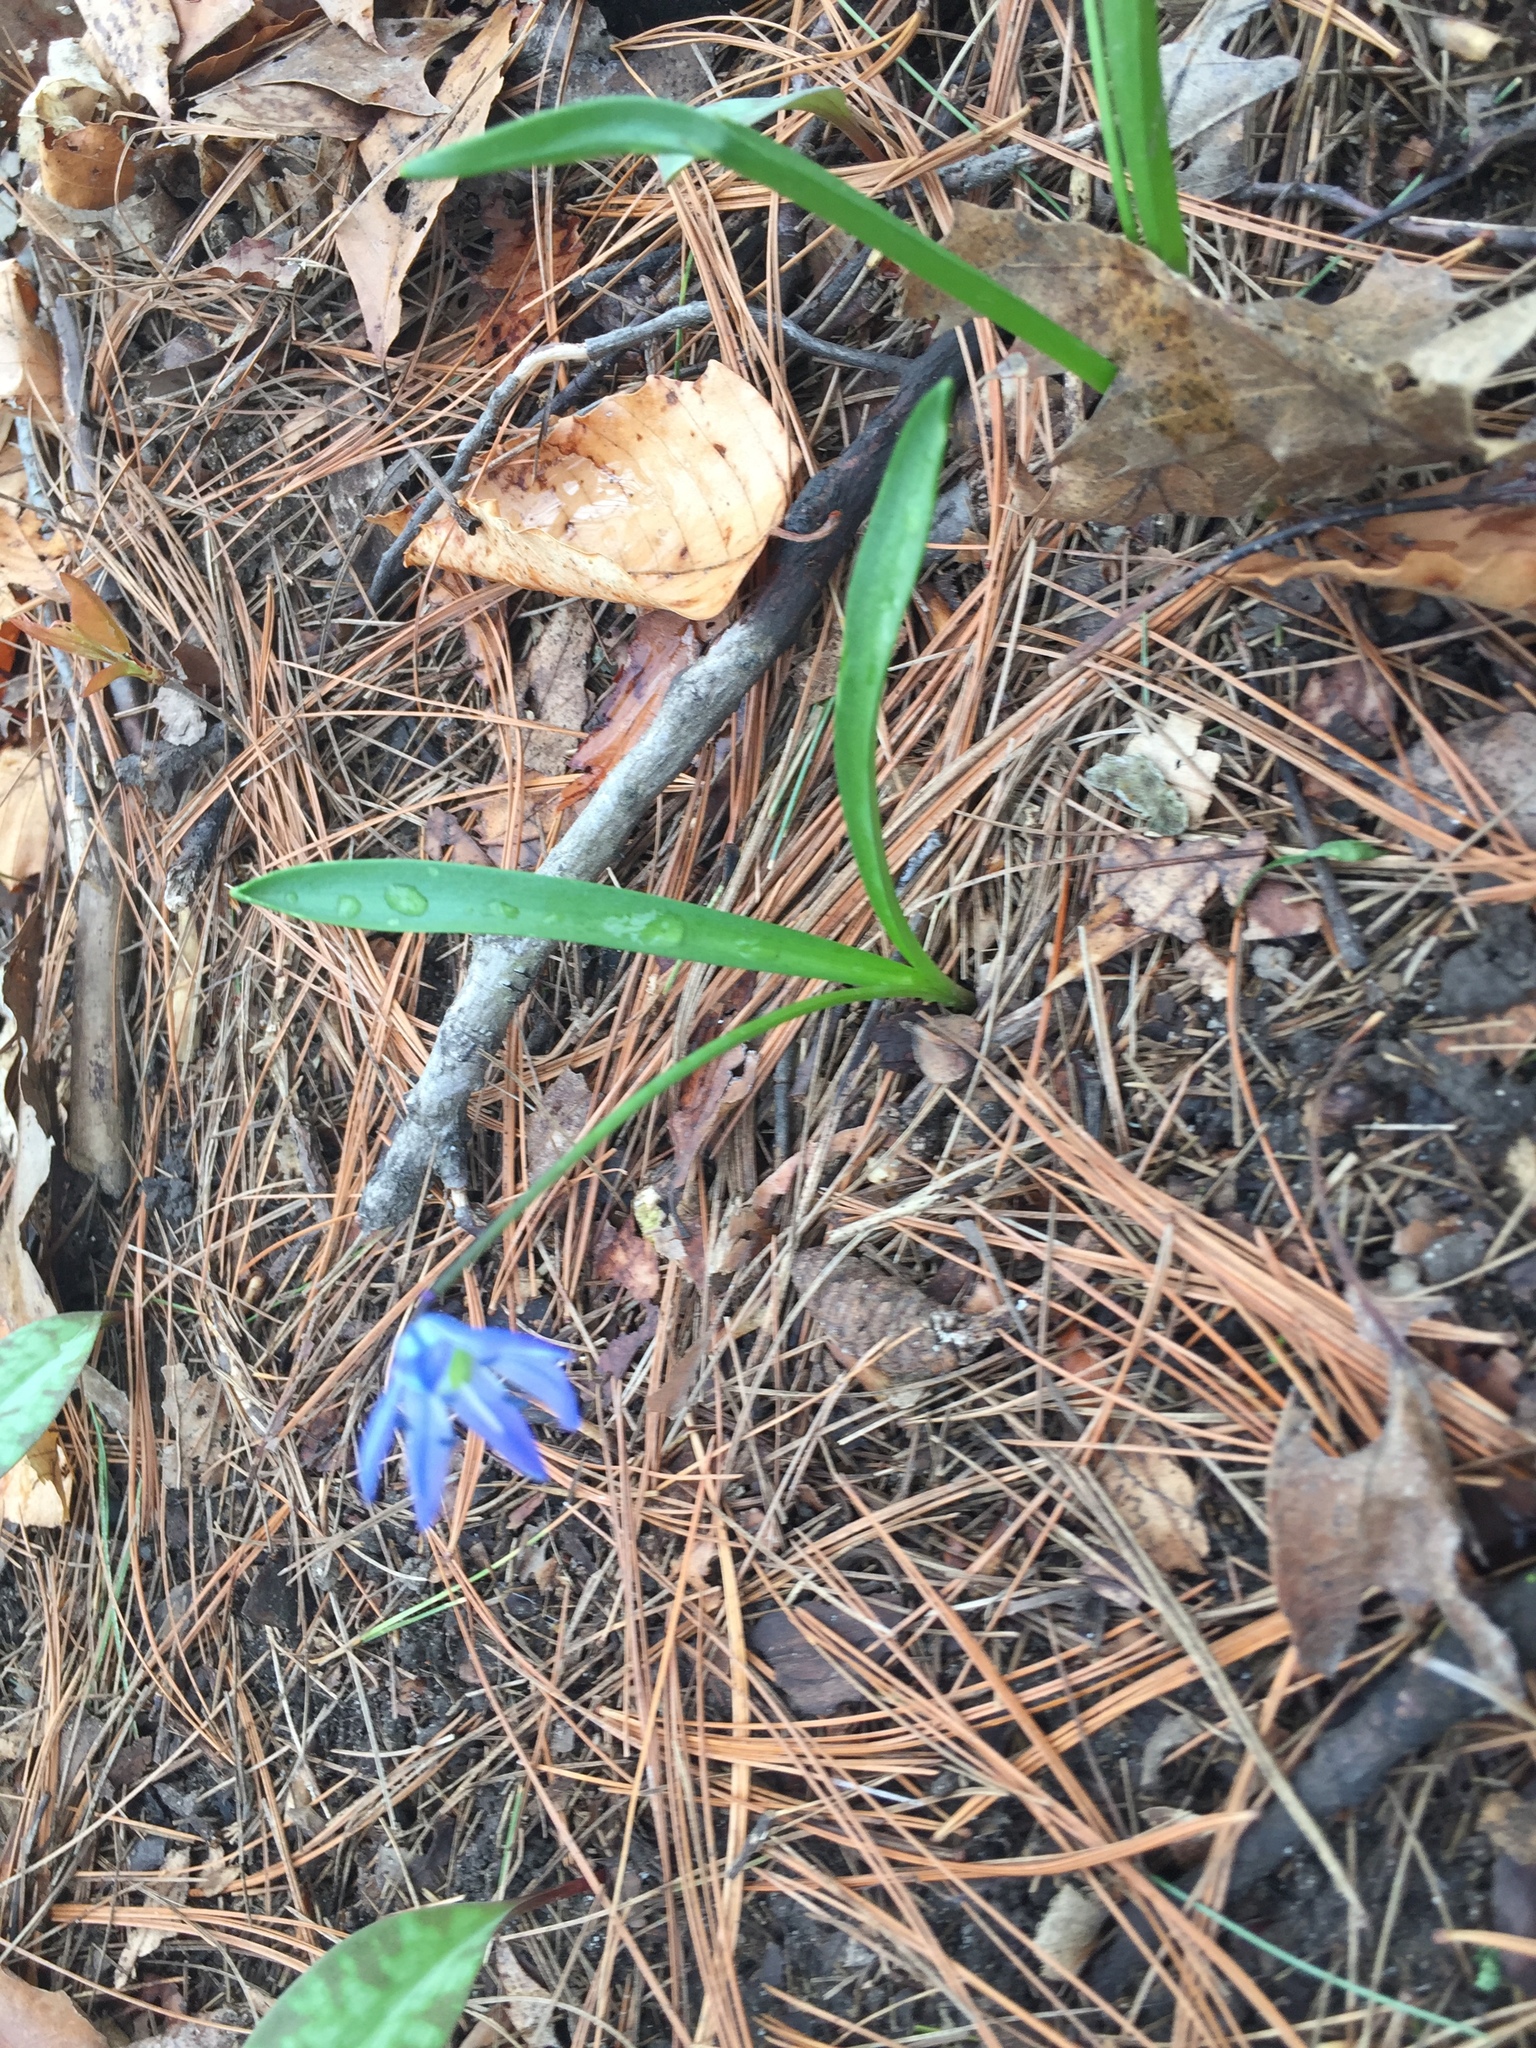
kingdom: Plantae
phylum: Tracheophyta
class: Liliopsida
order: Asparagales
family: Asparagaceae
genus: Scilla
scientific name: Scilla siberica
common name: Siberian squill
